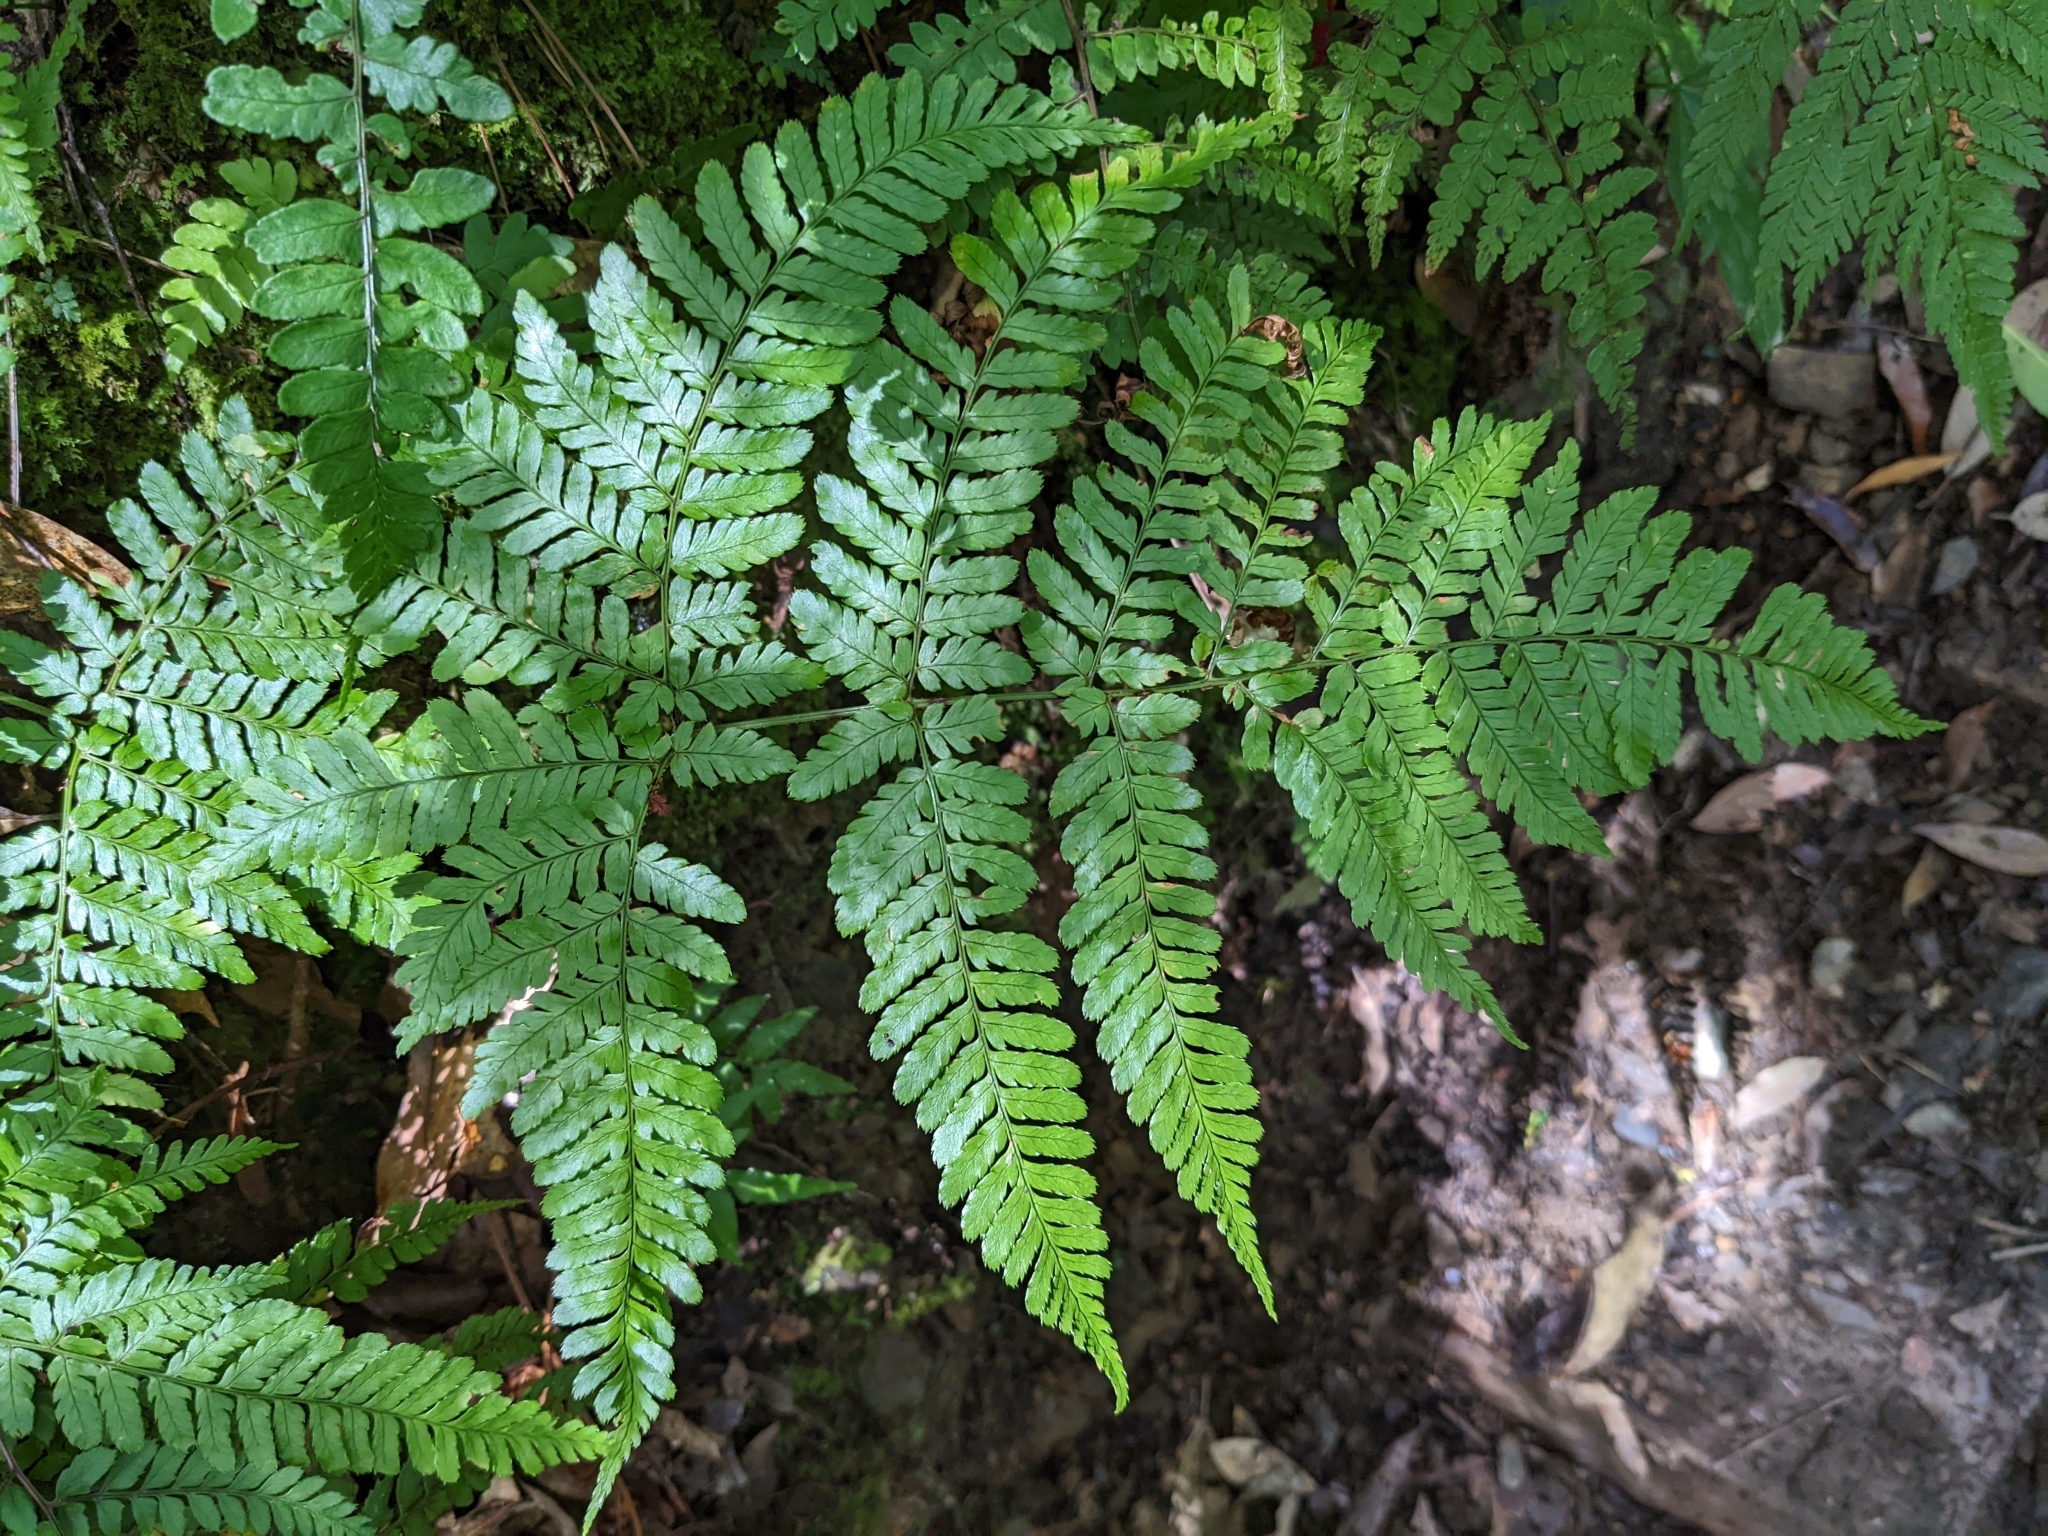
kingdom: Plantae
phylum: Tracheophyta
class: Polypodiopsida
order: Polypodiales
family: Dryopteridaceae
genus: Dryopteris
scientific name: Dryopteris formosana
